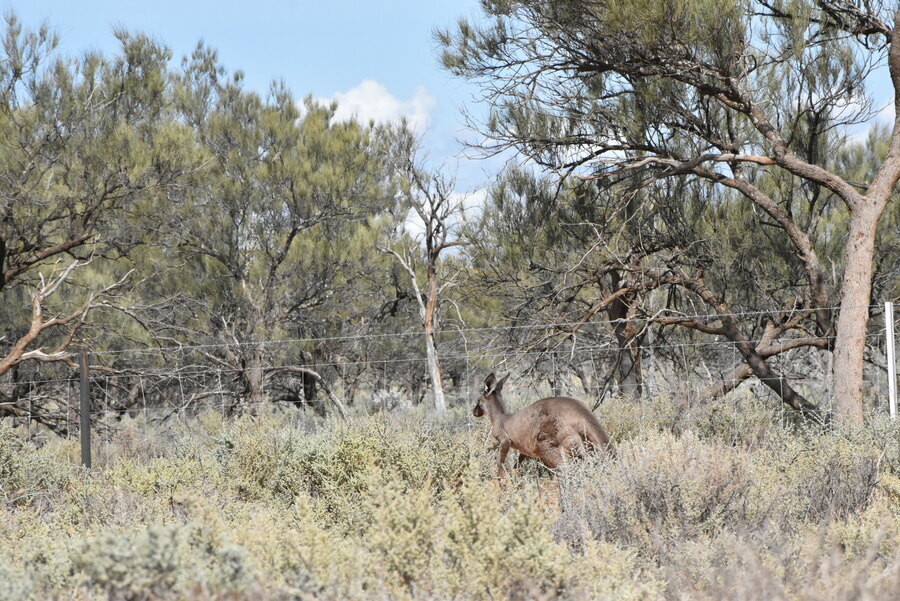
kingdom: Animalia
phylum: Chordata
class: Mammalia
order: Diprotodontia
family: Macropodidae
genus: Macropus
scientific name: Macropus fuliginosus
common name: Western grey kangaroo
